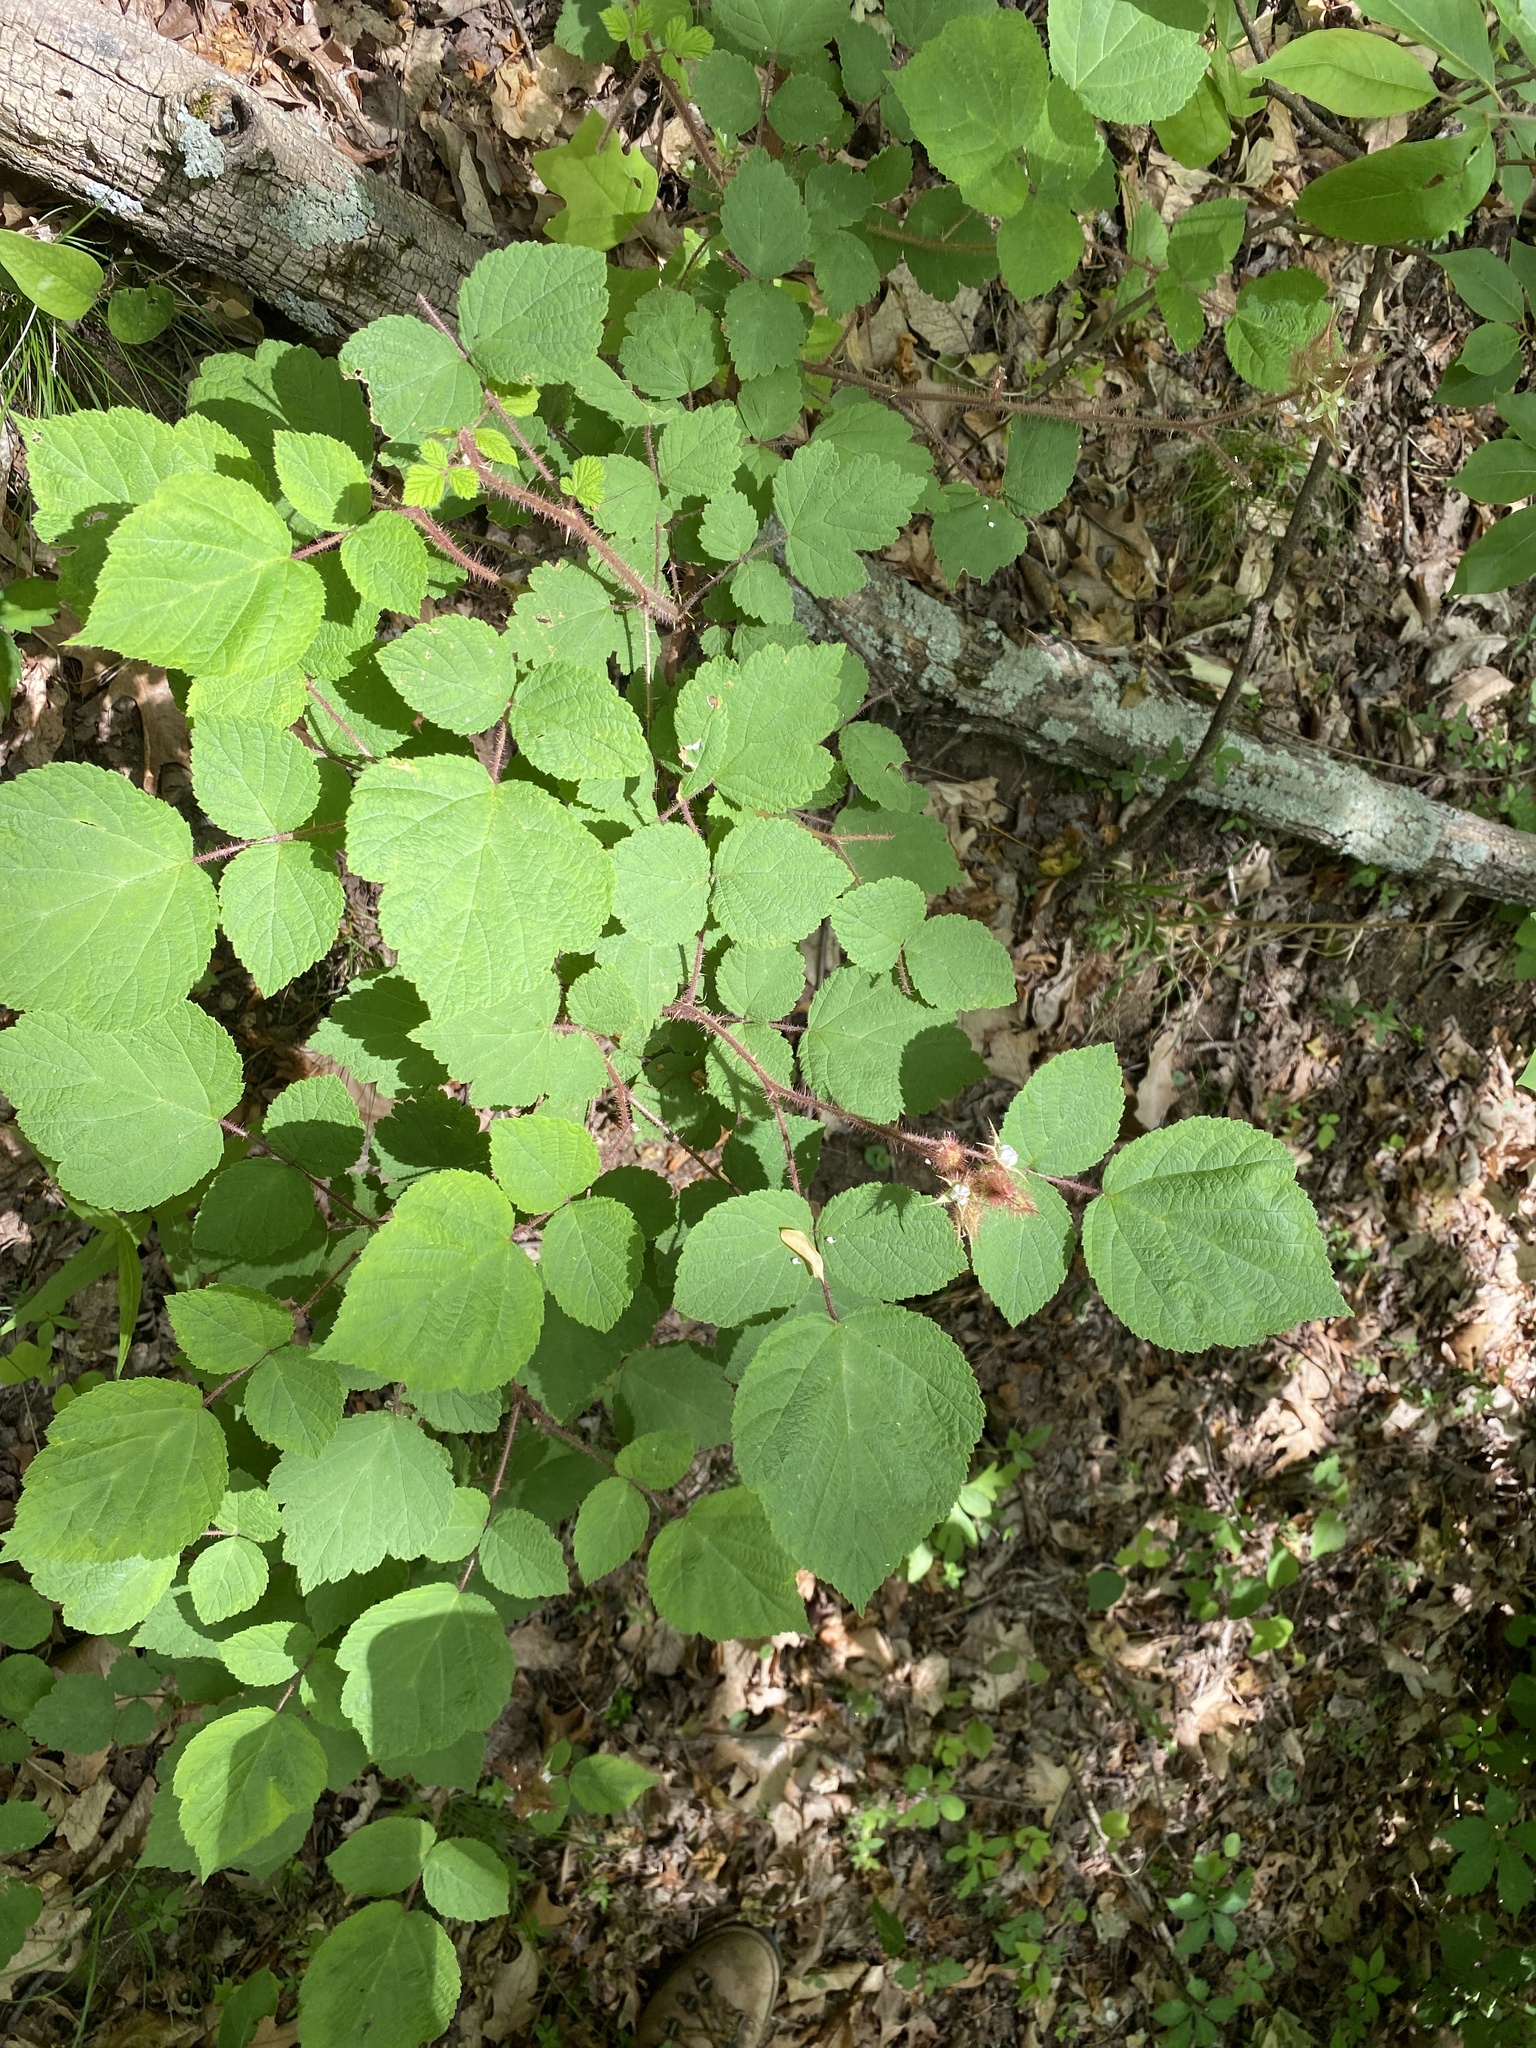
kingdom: Plantae
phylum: Tracheophyta
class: Magnoliopsida
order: Rosales
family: Rosaceae
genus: Rubus
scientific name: Rubus phoenicolasius
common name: Japanese wineberry
